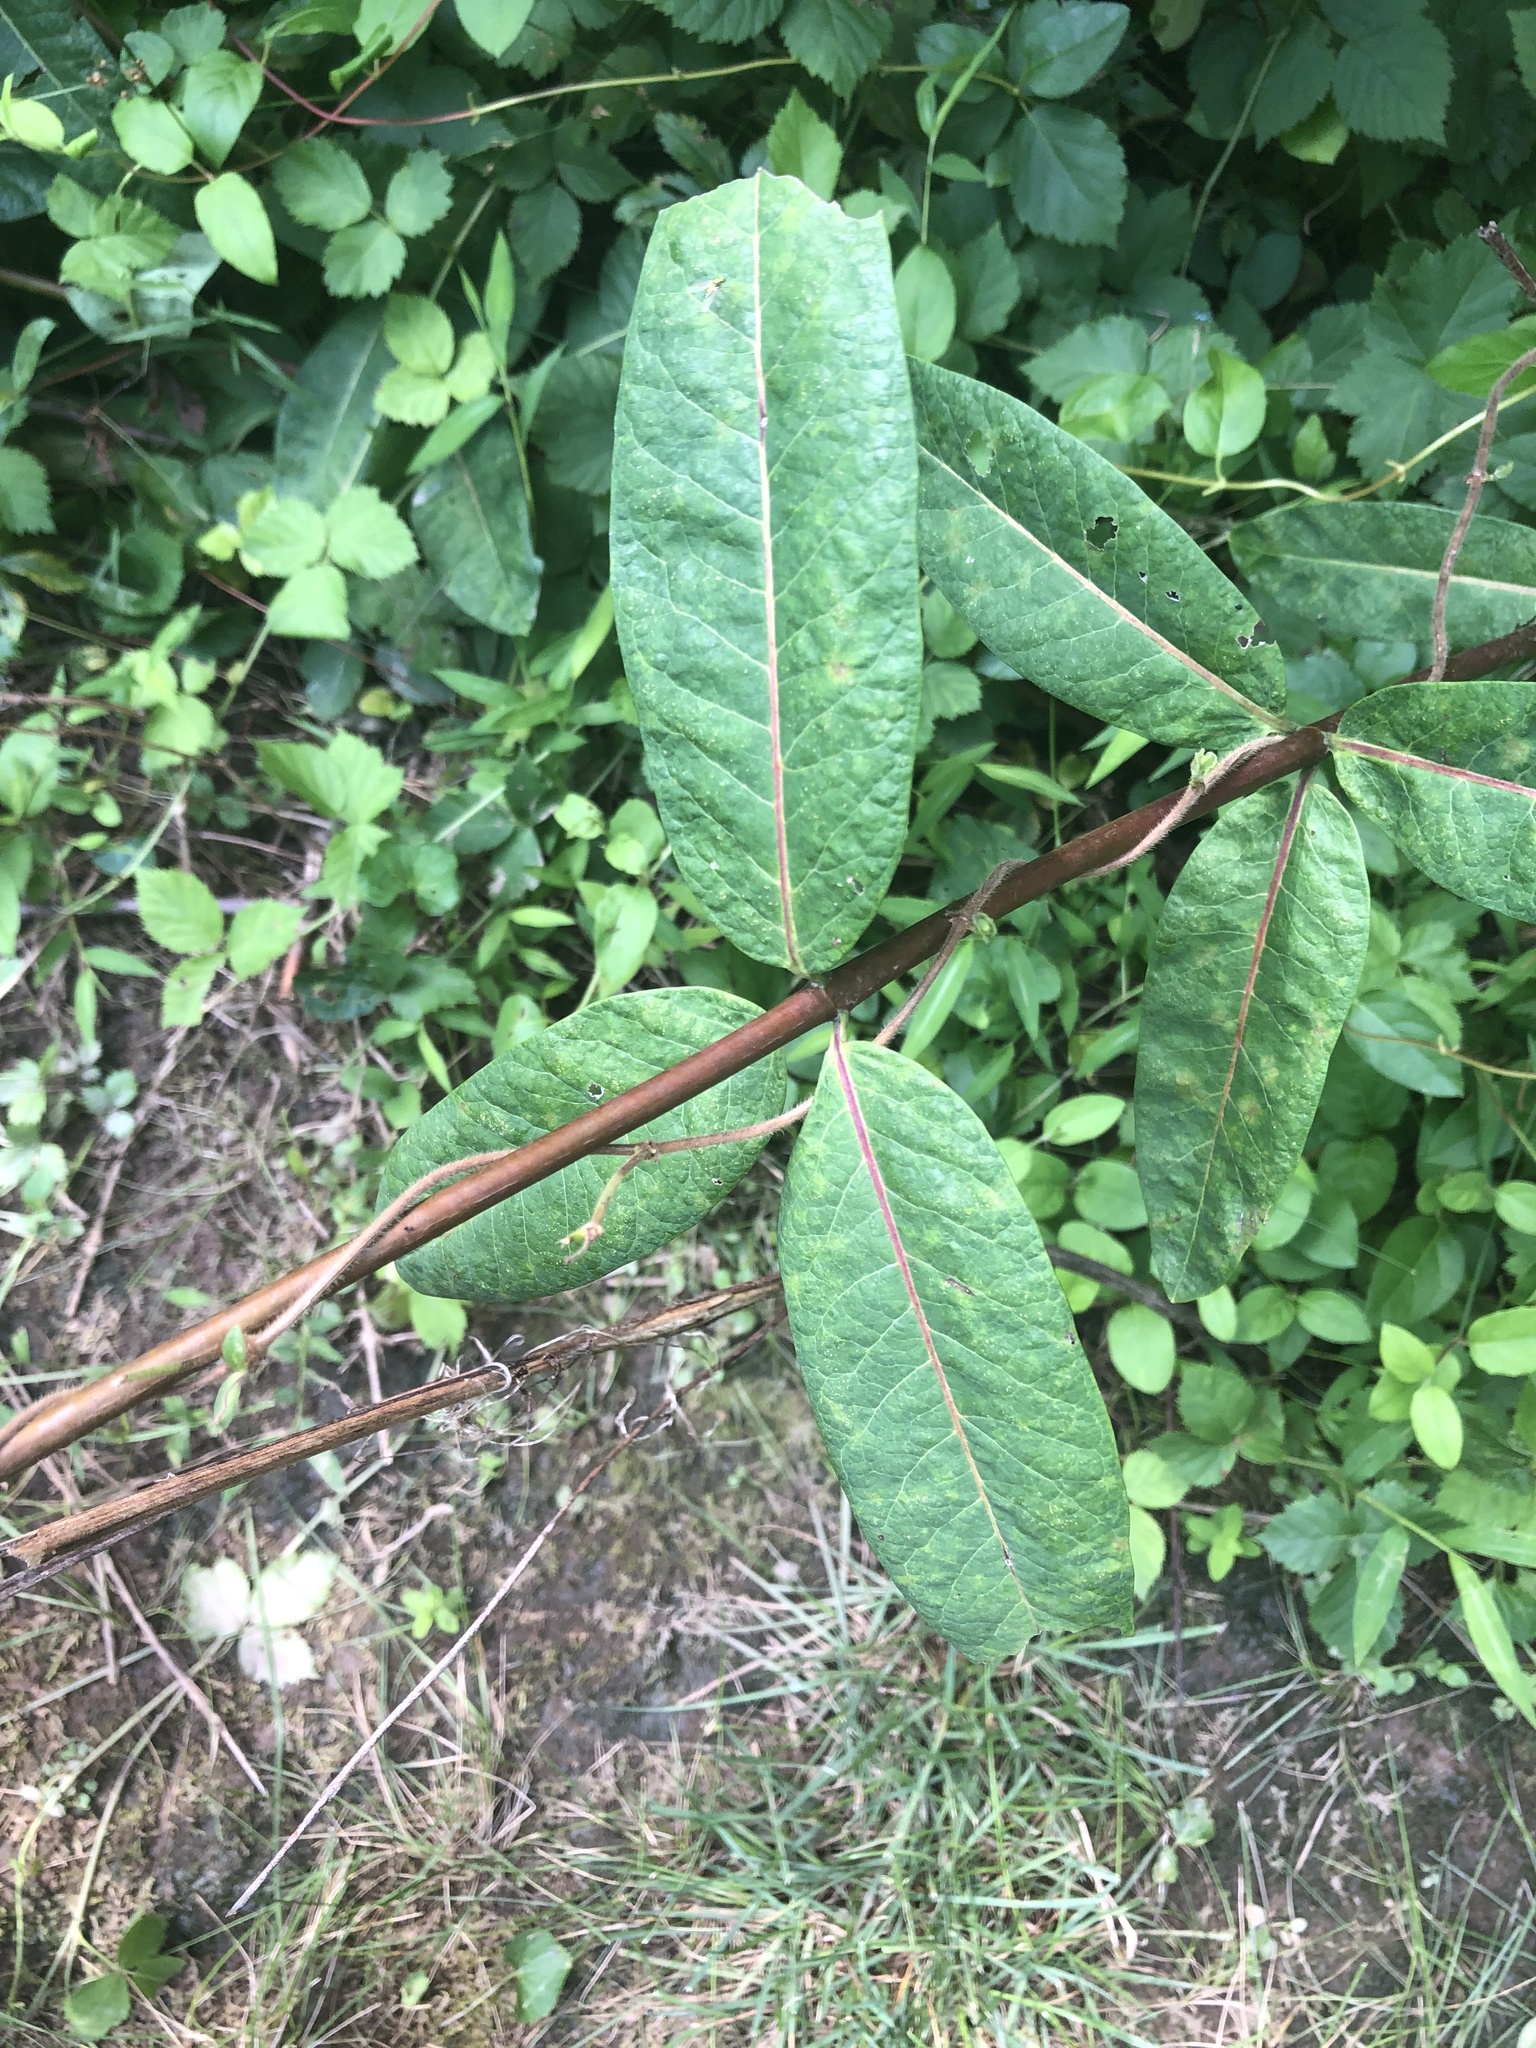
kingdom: Plantae
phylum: Tracheophyta
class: Magnoliopsida
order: Gentianales
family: Apocynaceae
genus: Apocynum
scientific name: Apocynum cannabinum
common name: Hemp dogbane
